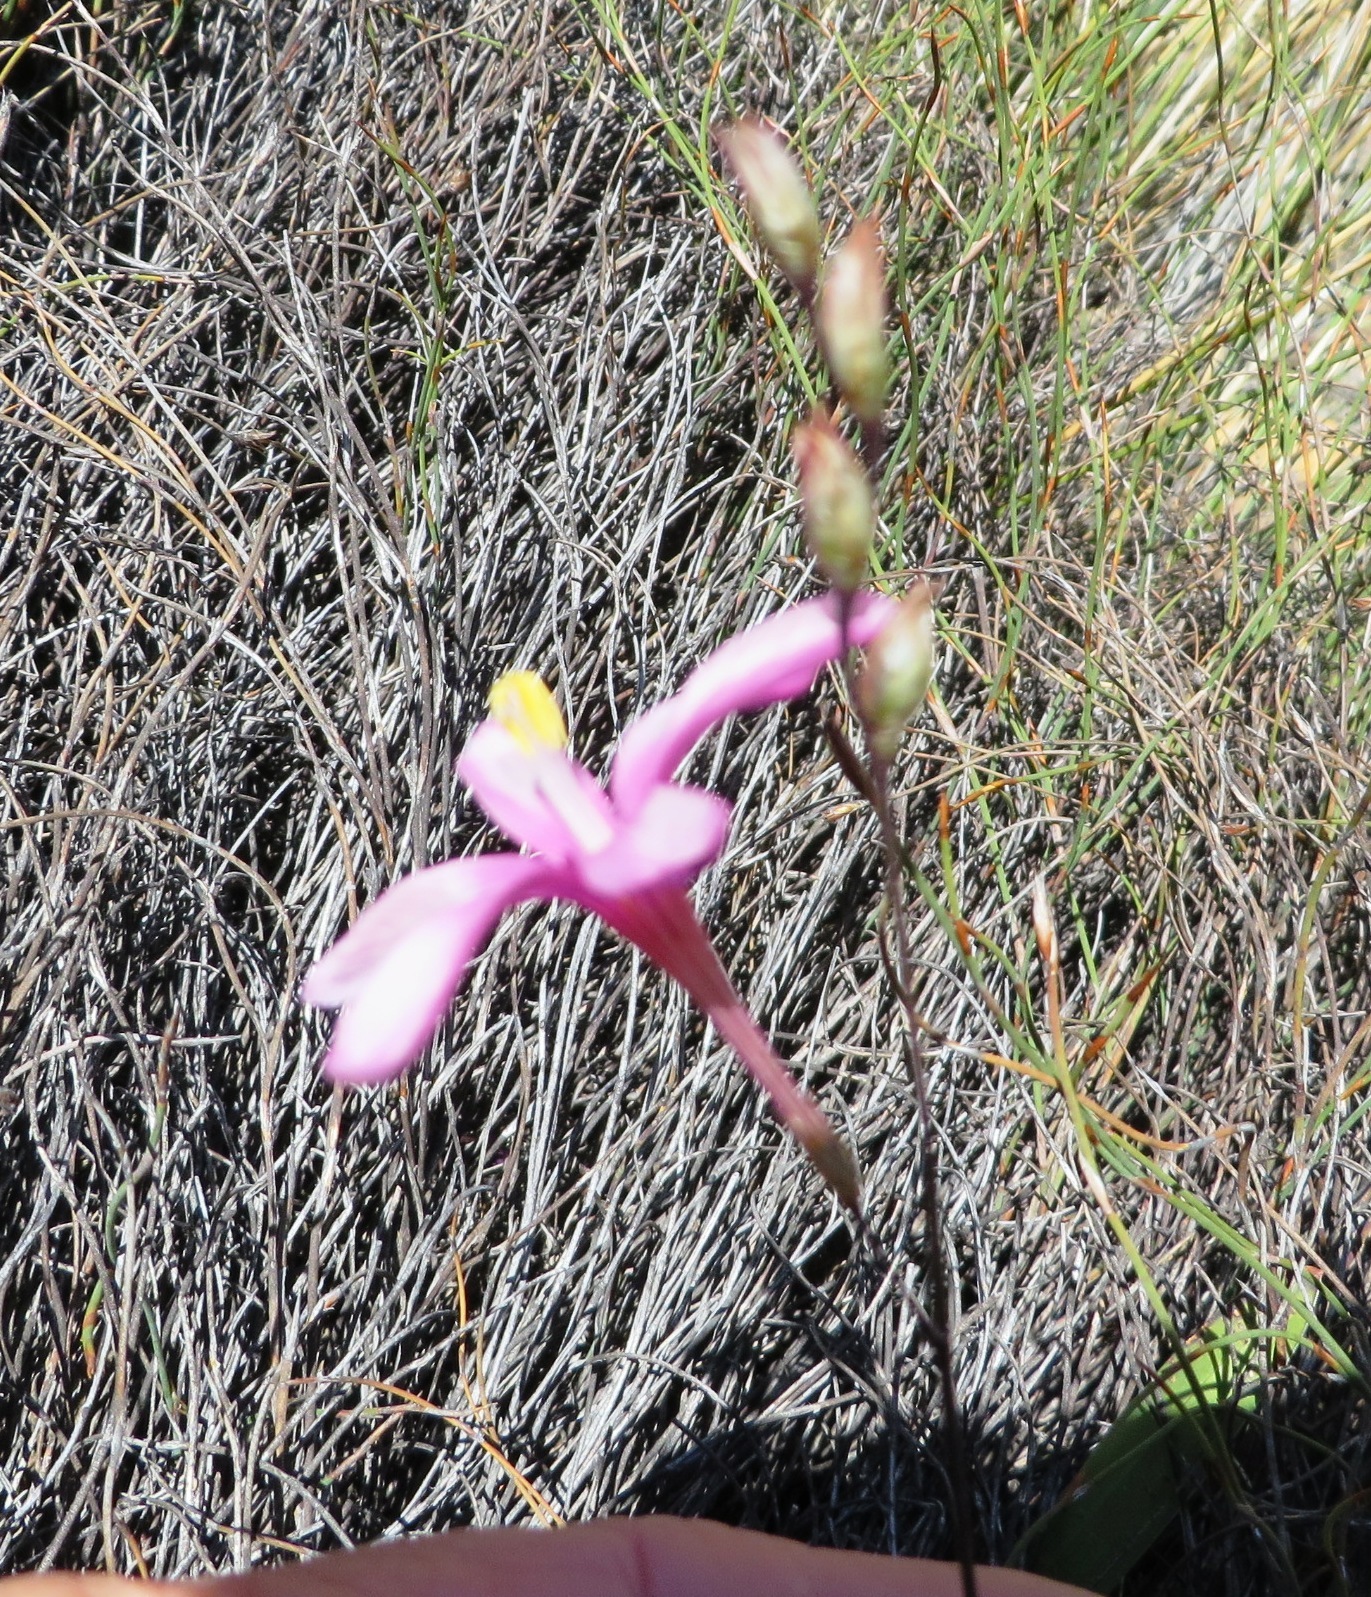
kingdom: Plantae
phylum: Tracheophyta
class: Liliopsida
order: Asparagales
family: Iridaceae
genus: Ixia
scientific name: Ixia latifolia
